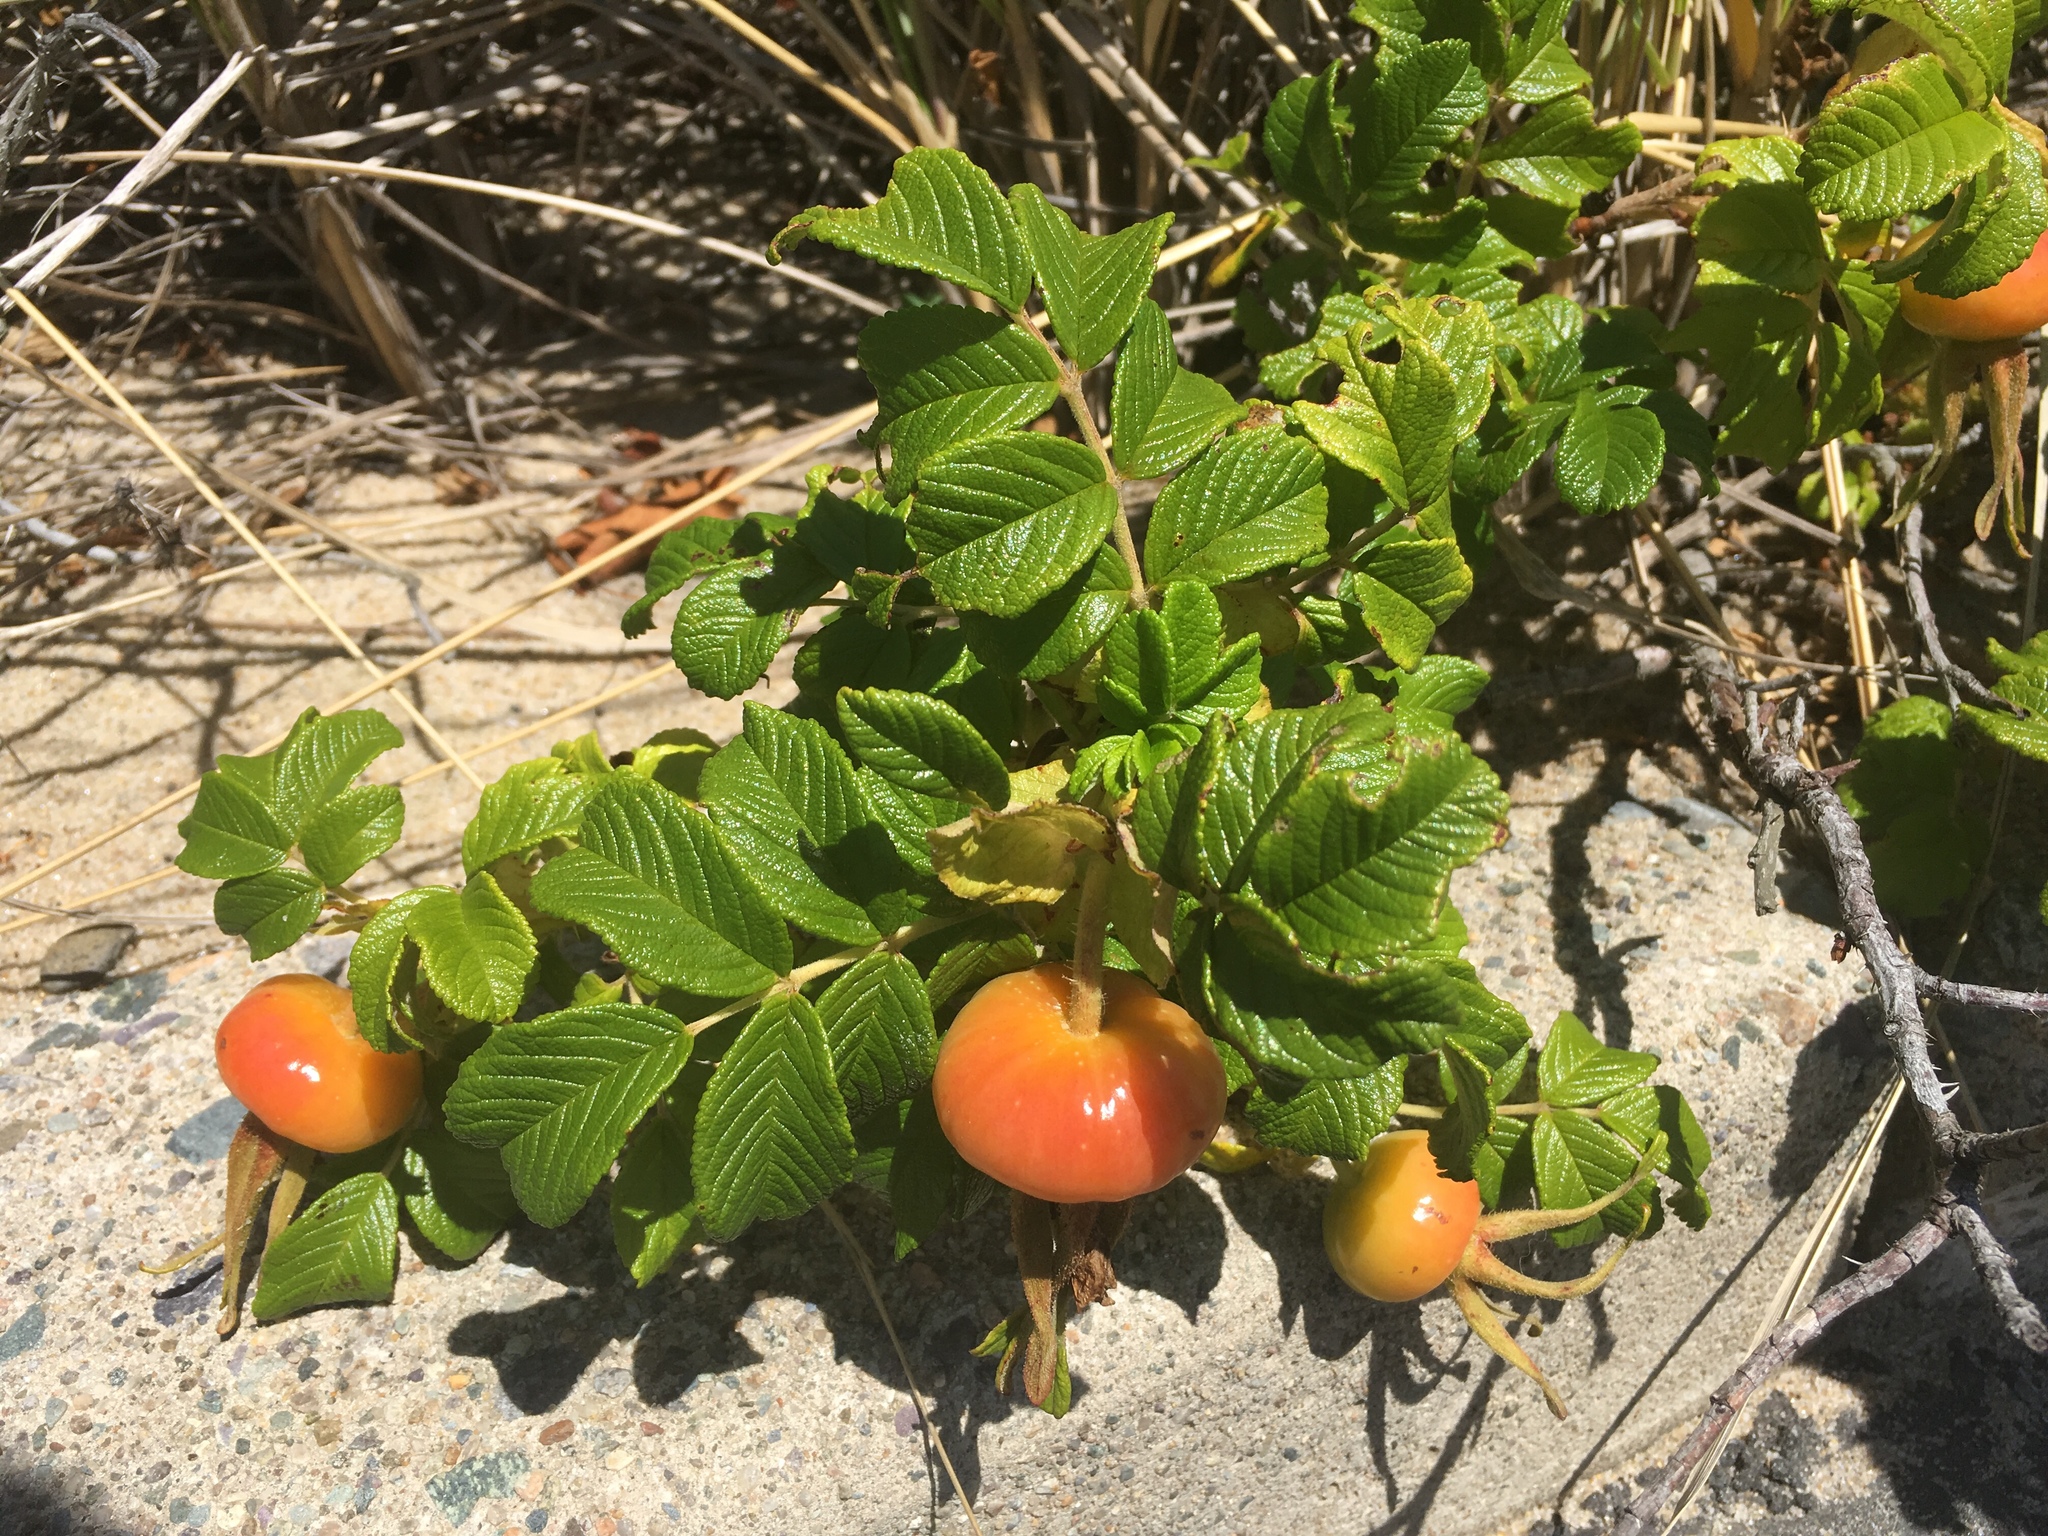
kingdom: Plantae
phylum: Tracheophyta
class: Magnoliopsida
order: Rosales
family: Rosaceae
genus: Rosa
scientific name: Rosa rugosa
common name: Japanese rose
